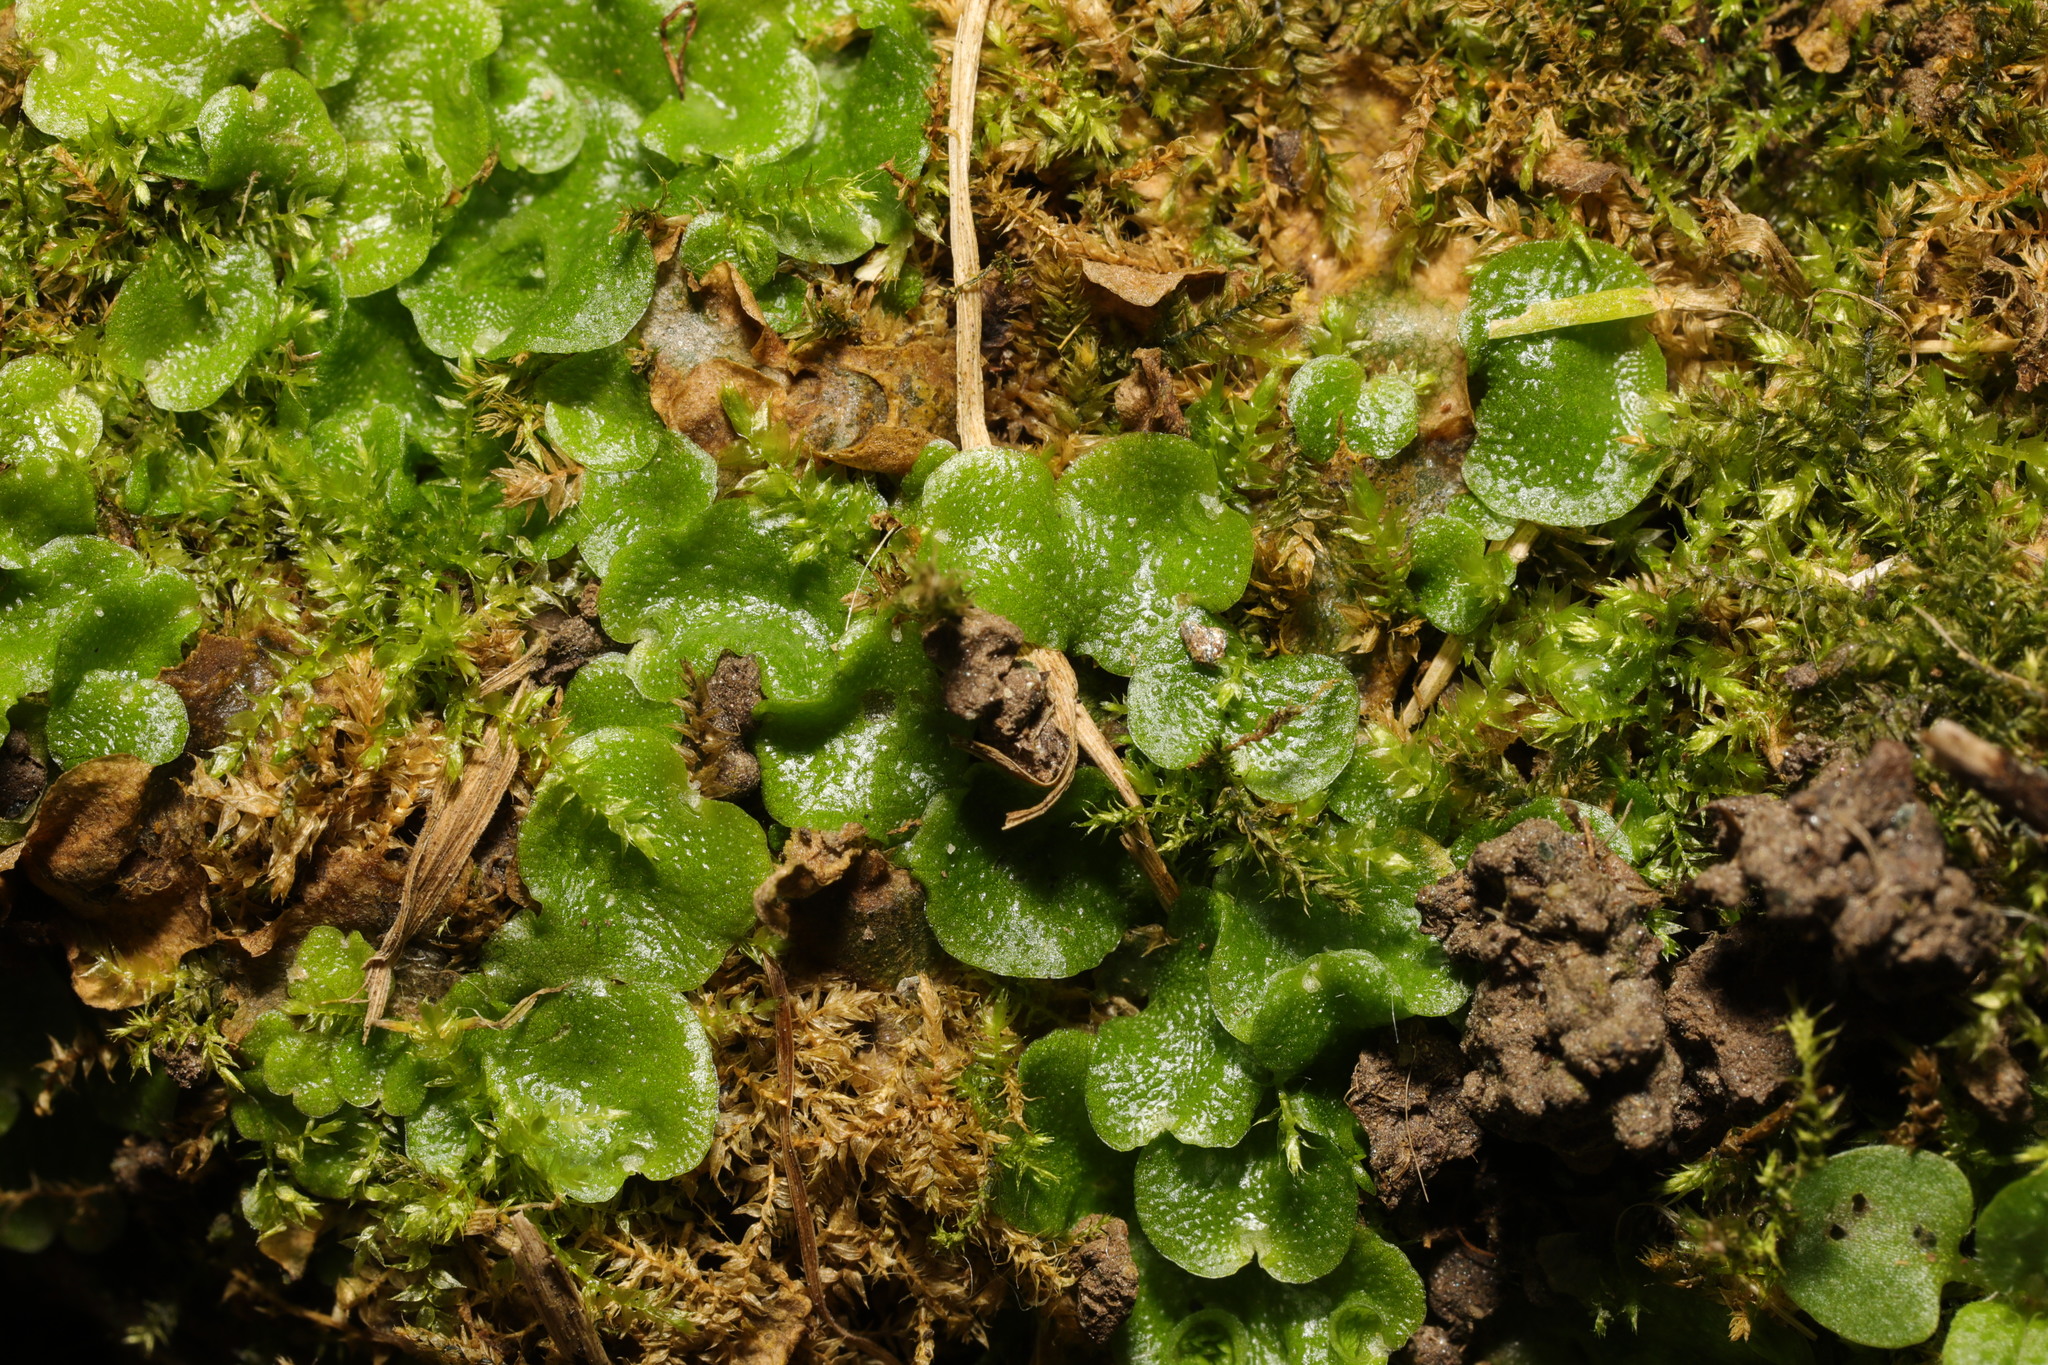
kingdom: Plantae
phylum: Marchantiophyta
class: Marchantiopsida
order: Lunulariales
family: Lunulariaceae
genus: Lunularia
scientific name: Lunularia cruciata
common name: Crescent-cup liverwort
